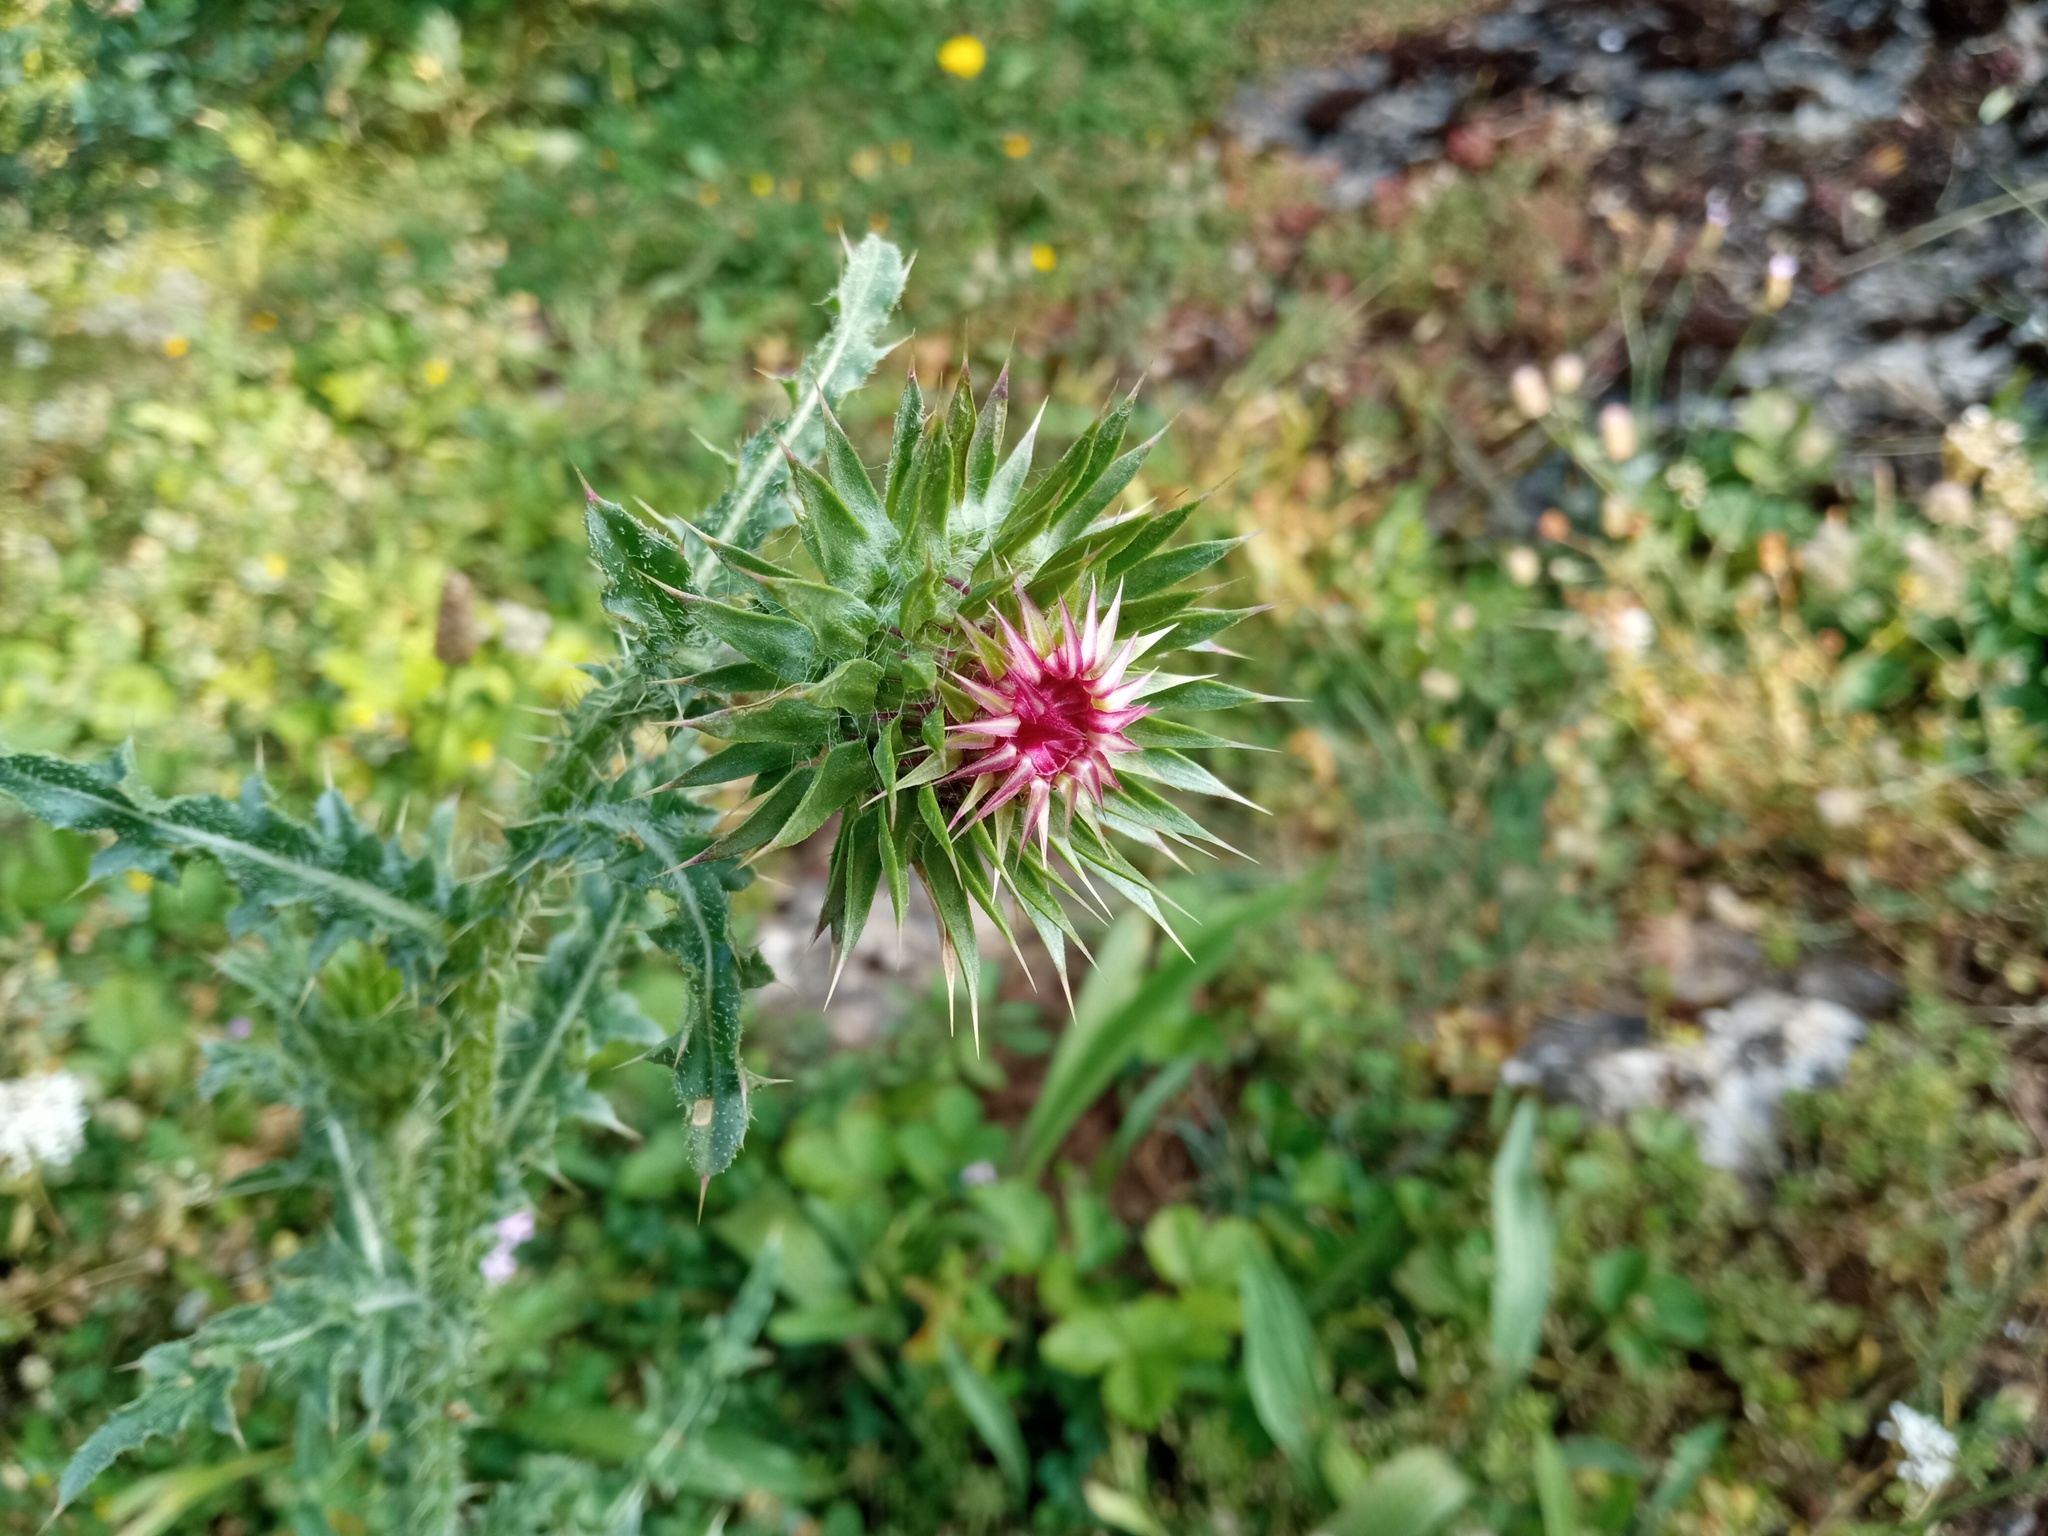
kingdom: Plantae
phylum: Tracheophyta
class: Magnoliopsida
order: Asterales
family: Asteraceae
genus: Carduus
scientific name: Carduus nutans
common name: Musk thistle
